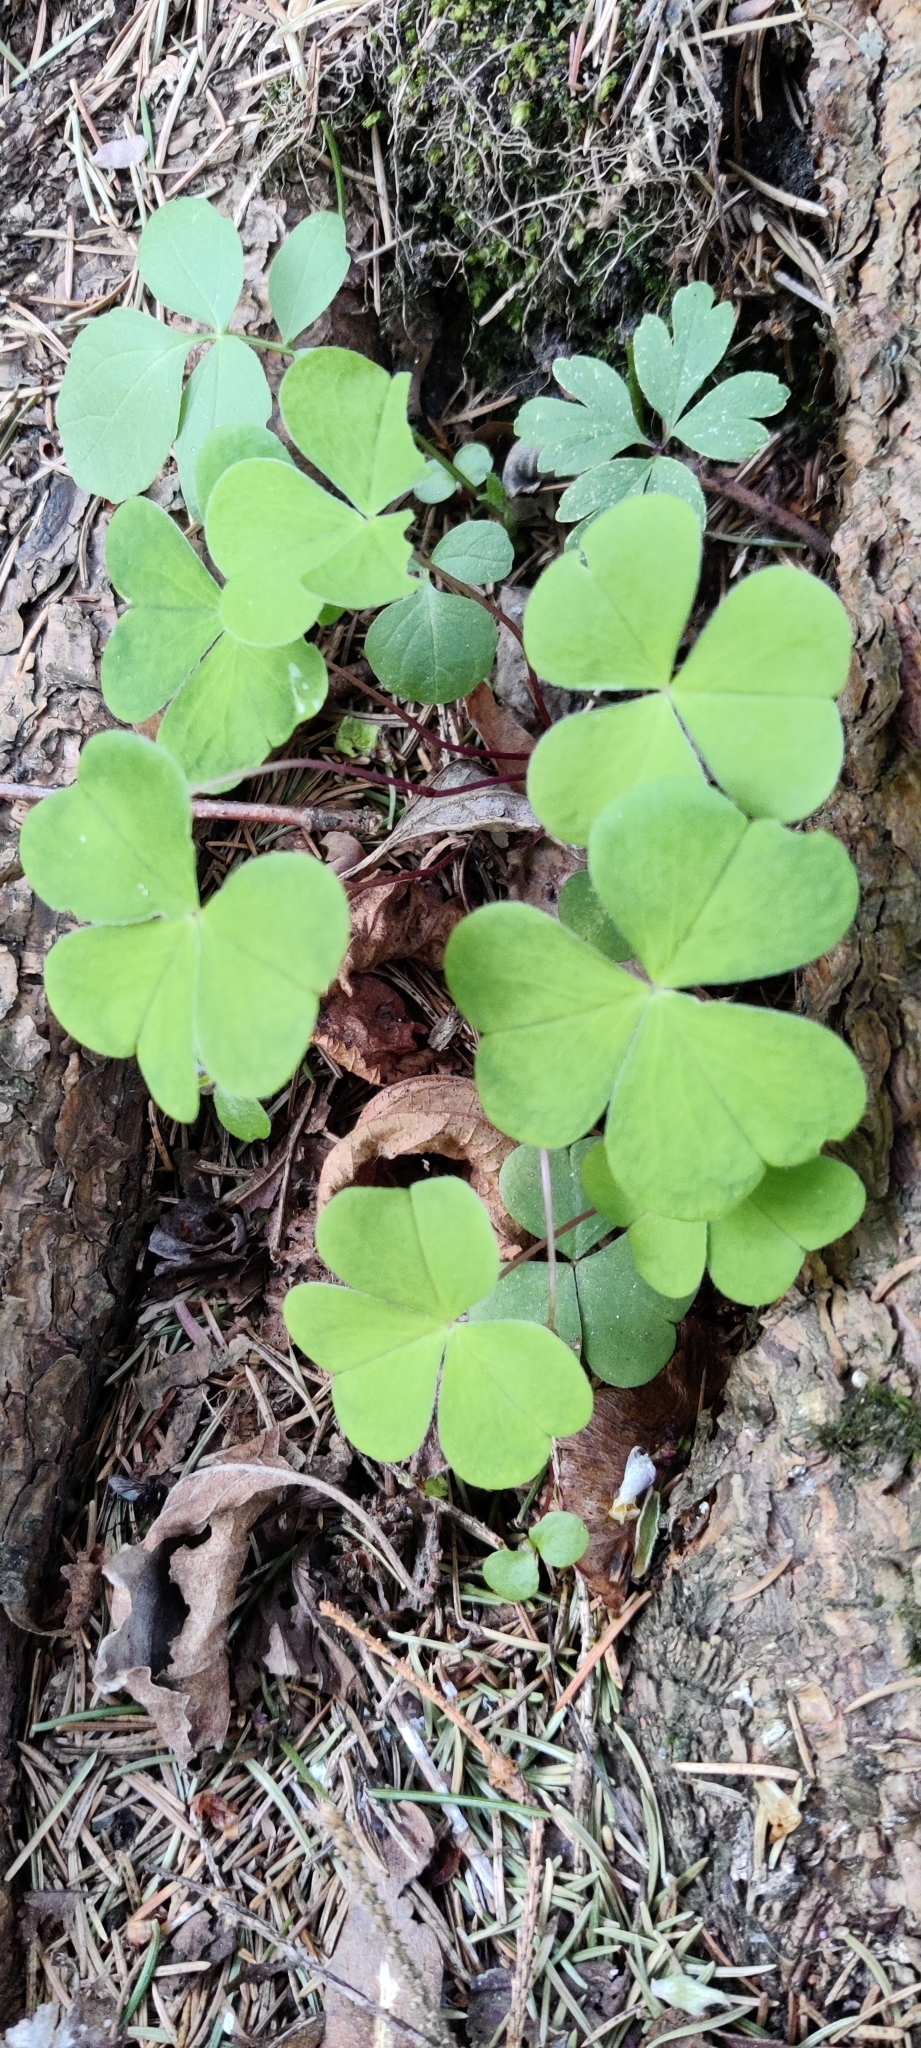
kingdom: Plantae
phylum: Tracheophyta
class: Magnoliopsida
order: Oxalidales
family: Oxalidaceae
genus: Oxalis
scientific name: Oxalis acetosella
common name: Wood-sorrel
